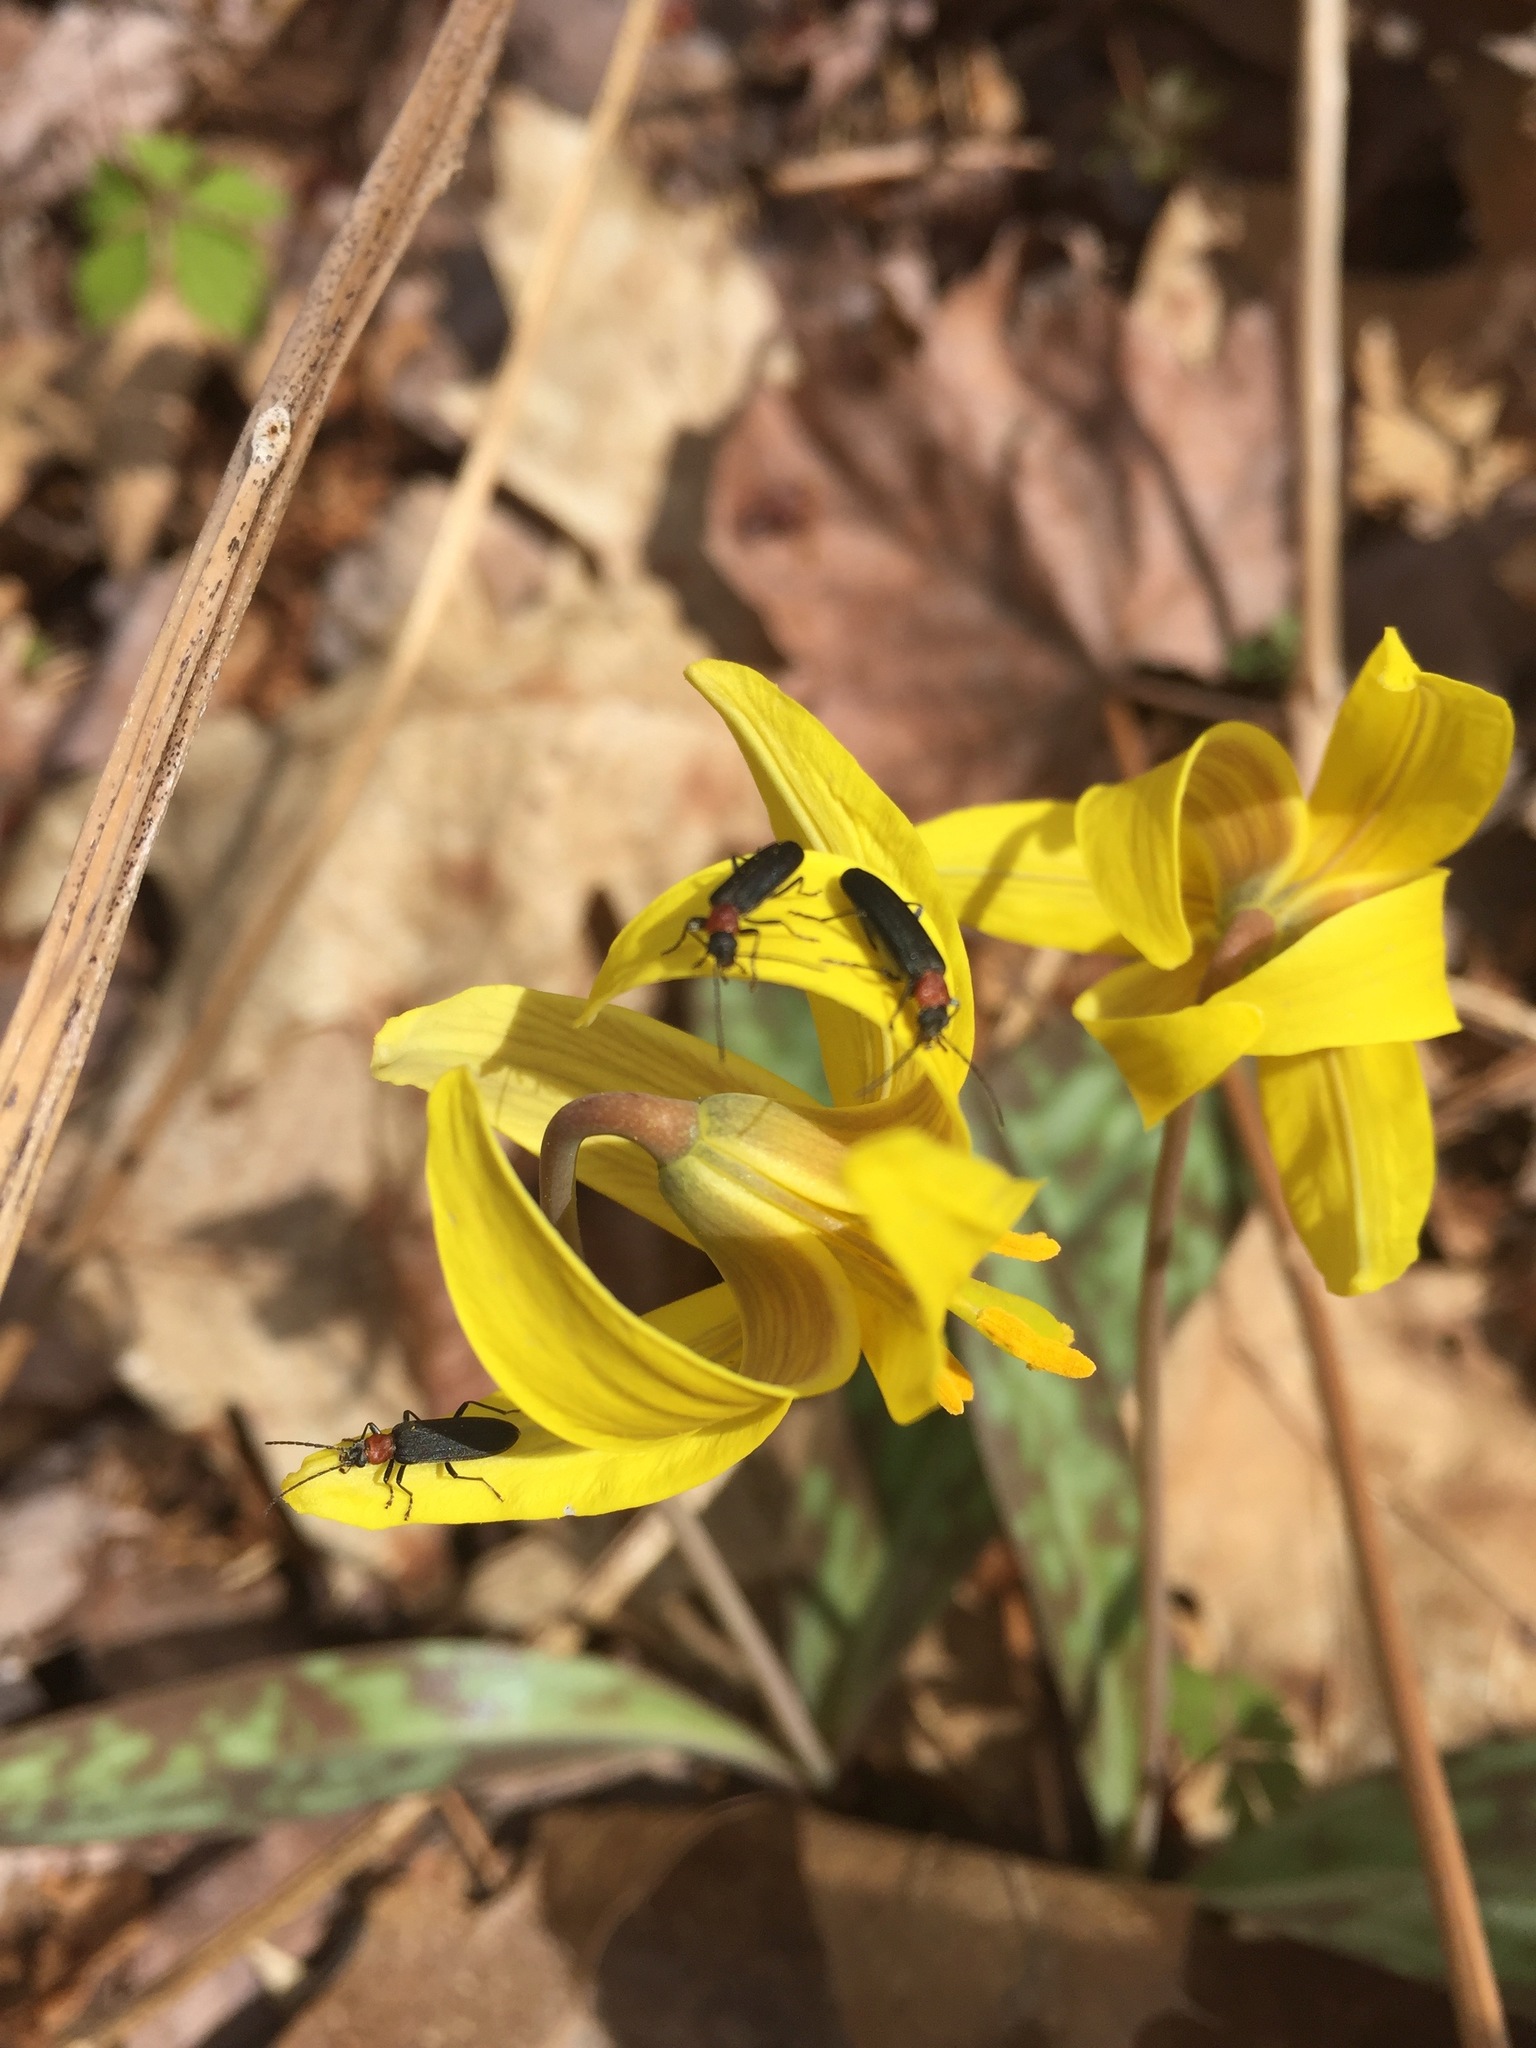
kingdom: Plantae
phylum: Tracheophyta
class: Liliopsida
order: Liliales
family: Liliaceae
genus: Erythronium
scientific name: Erythronium americanum
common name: Yellow adder's-tongue
